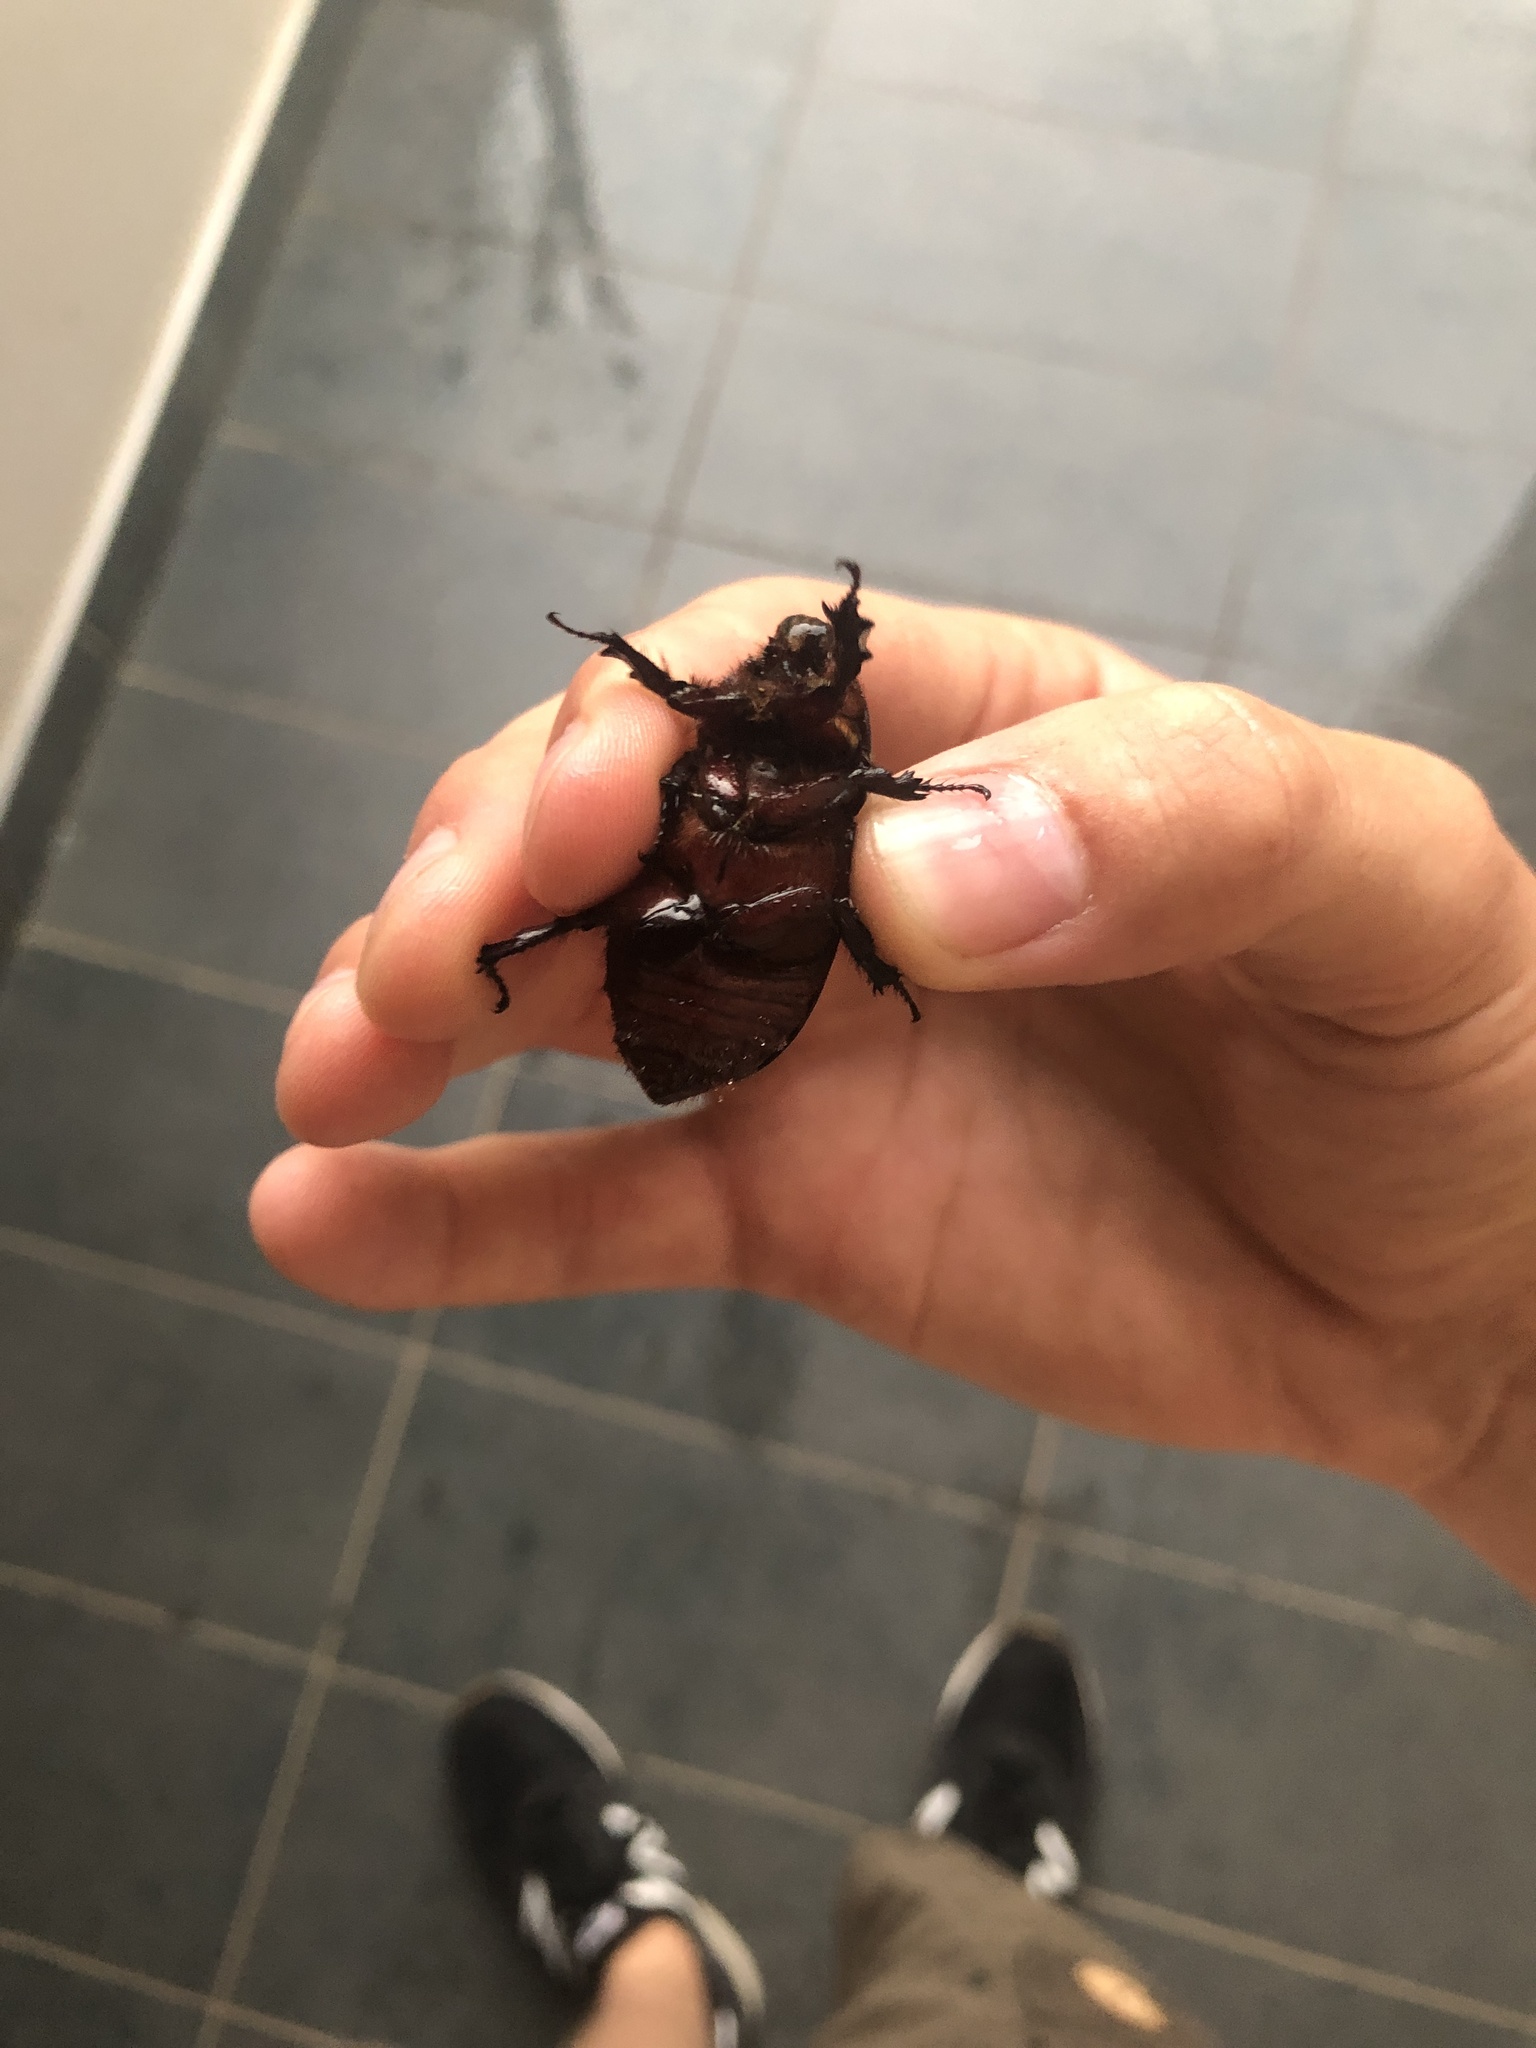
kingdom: Animalia
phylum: Arthropoda
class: Insecta
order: Coleoptera
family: Scarabaeidae
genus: Oryctes
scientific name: Oryctes boas
